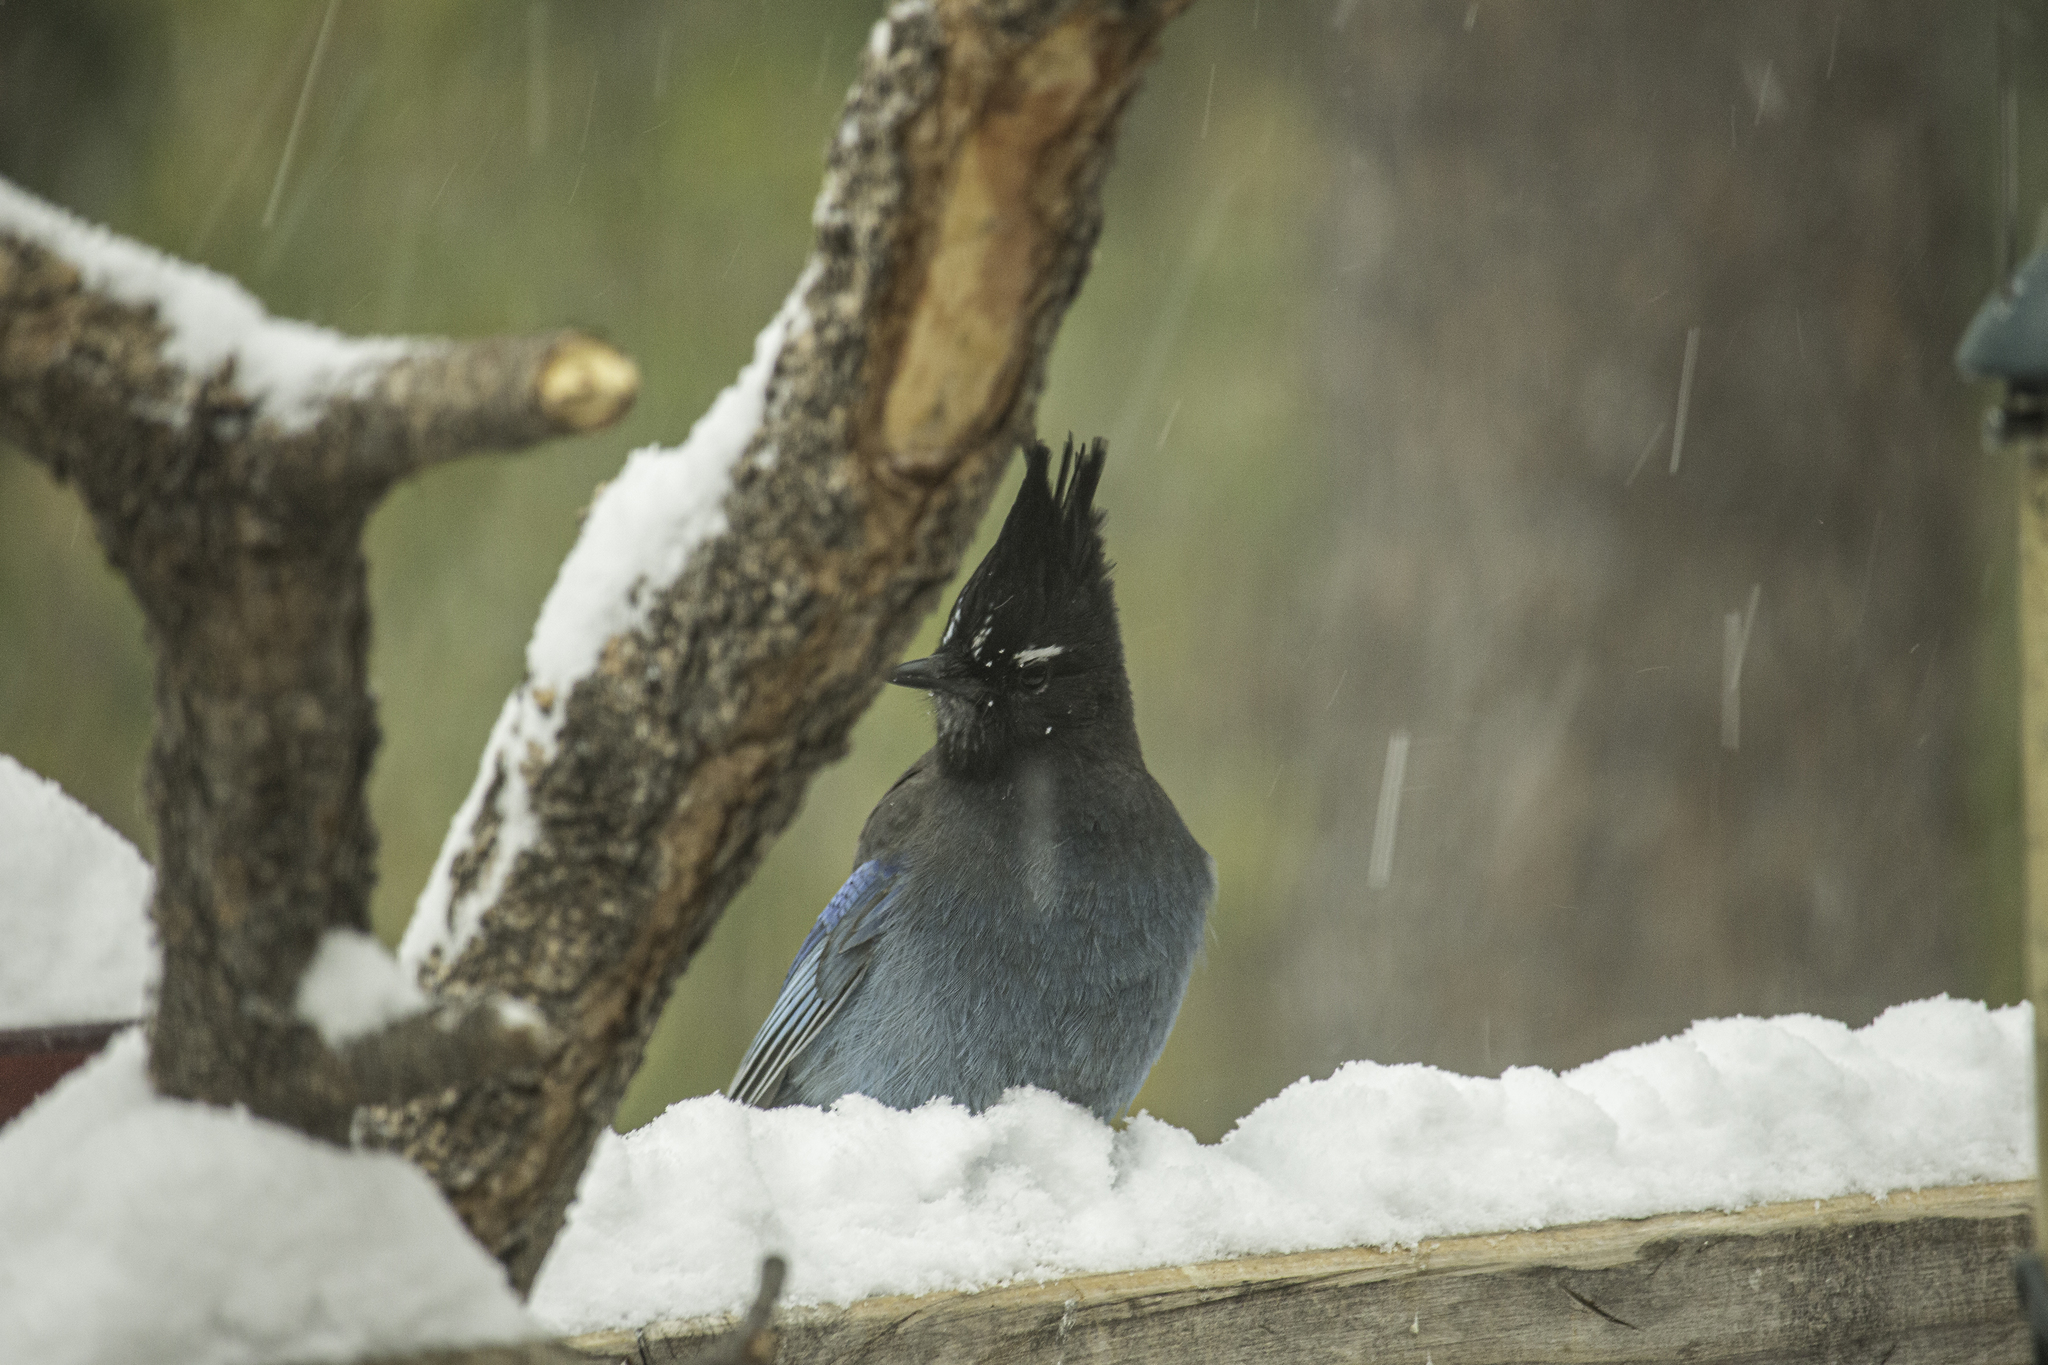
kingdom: Animalia
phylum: Chordata
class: Aves
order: Passeriformes
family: Corvidae
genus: Cyanocitta
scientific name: Cyanocitta stelleri
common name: Steller's jay
